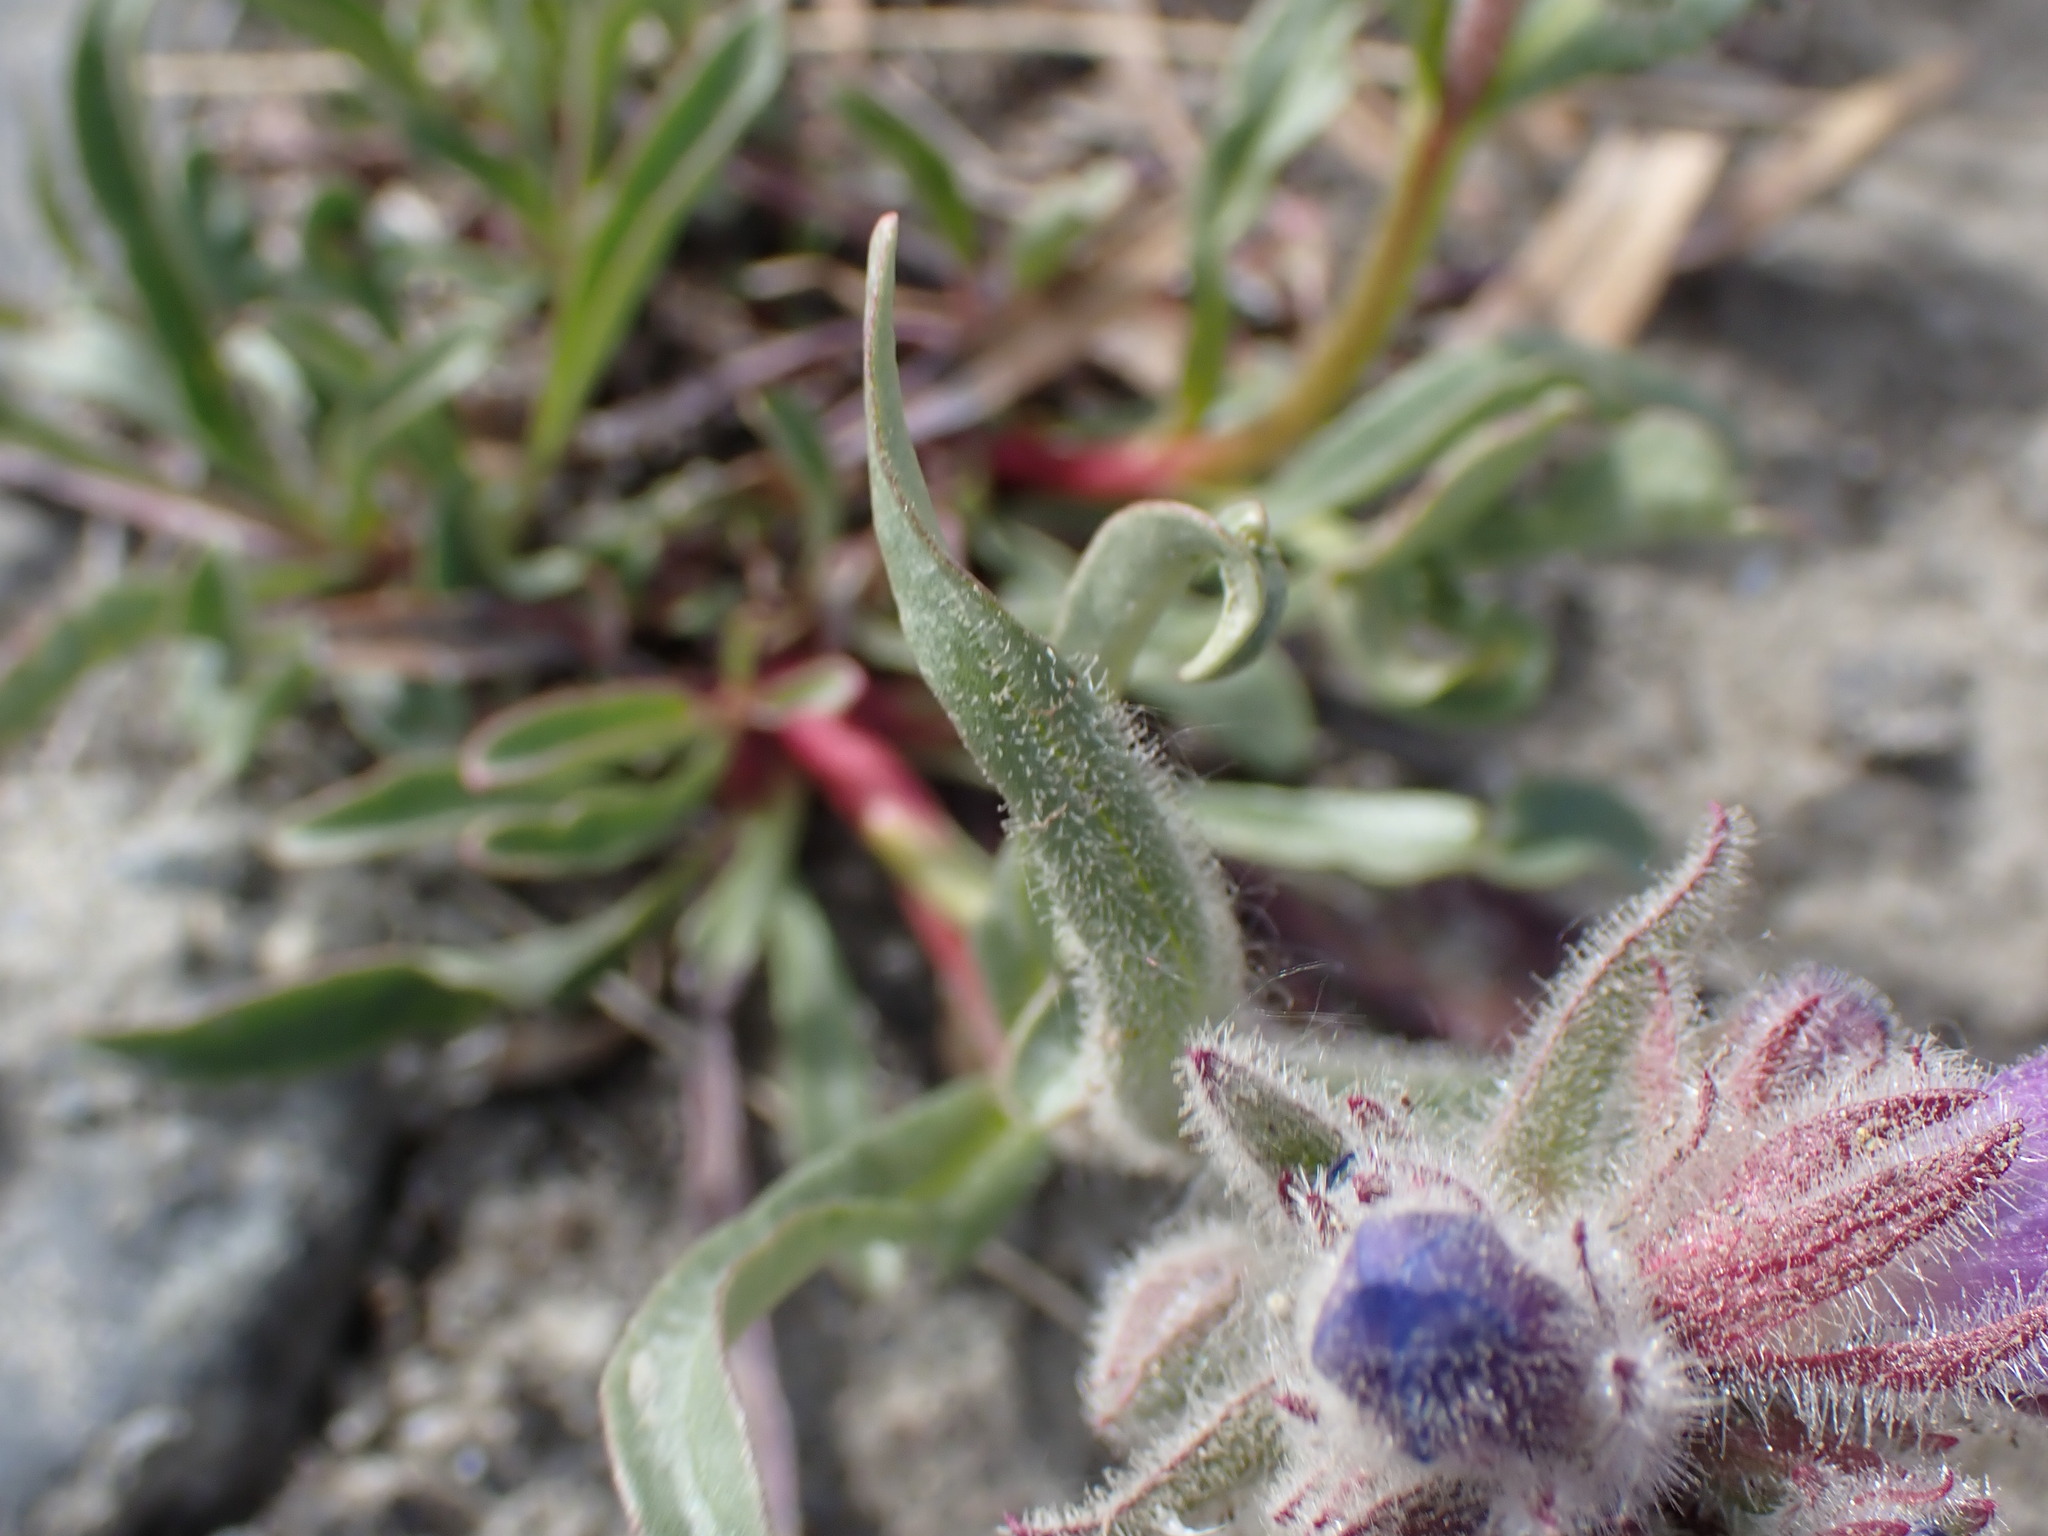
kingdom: Plantae
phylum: Tracheophyta
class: Magnoliopsida
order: Lamiales
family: Plantaginaceae
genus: Penstemon
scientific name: Penstemon gormanii
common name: Gorman's beardtongue
